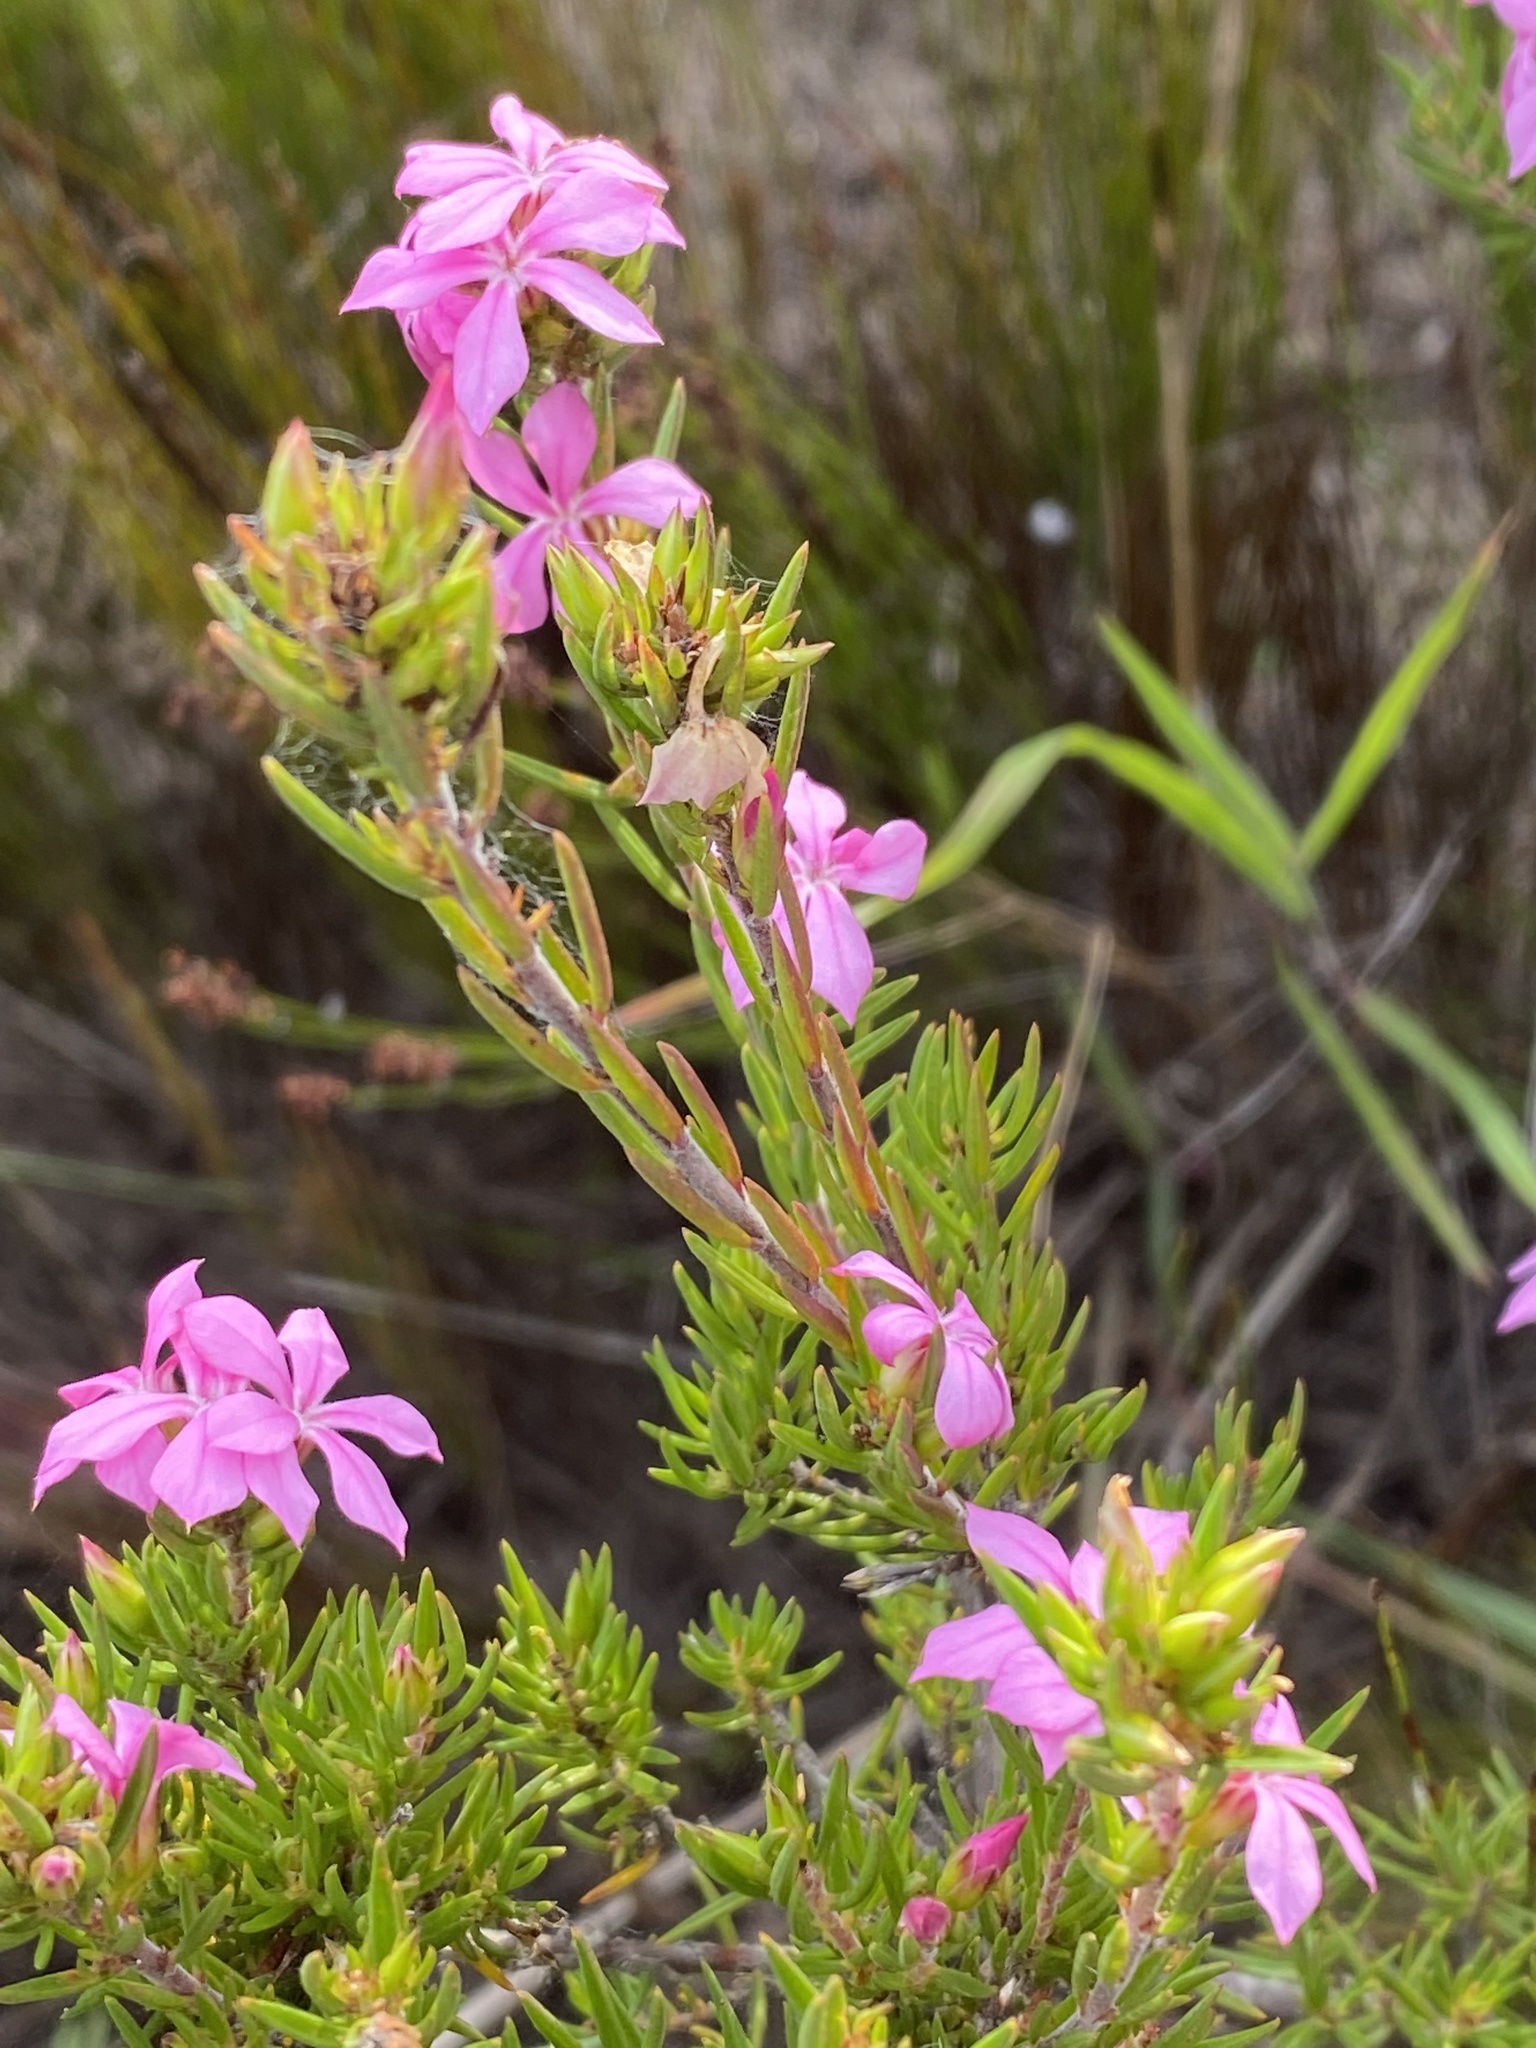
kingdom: Plantae
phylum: Tracheophyta
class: Magnoliopsida
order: Sapindales
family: Rutaceae
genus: Acmadenia
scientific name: Acmadenia obtusata
